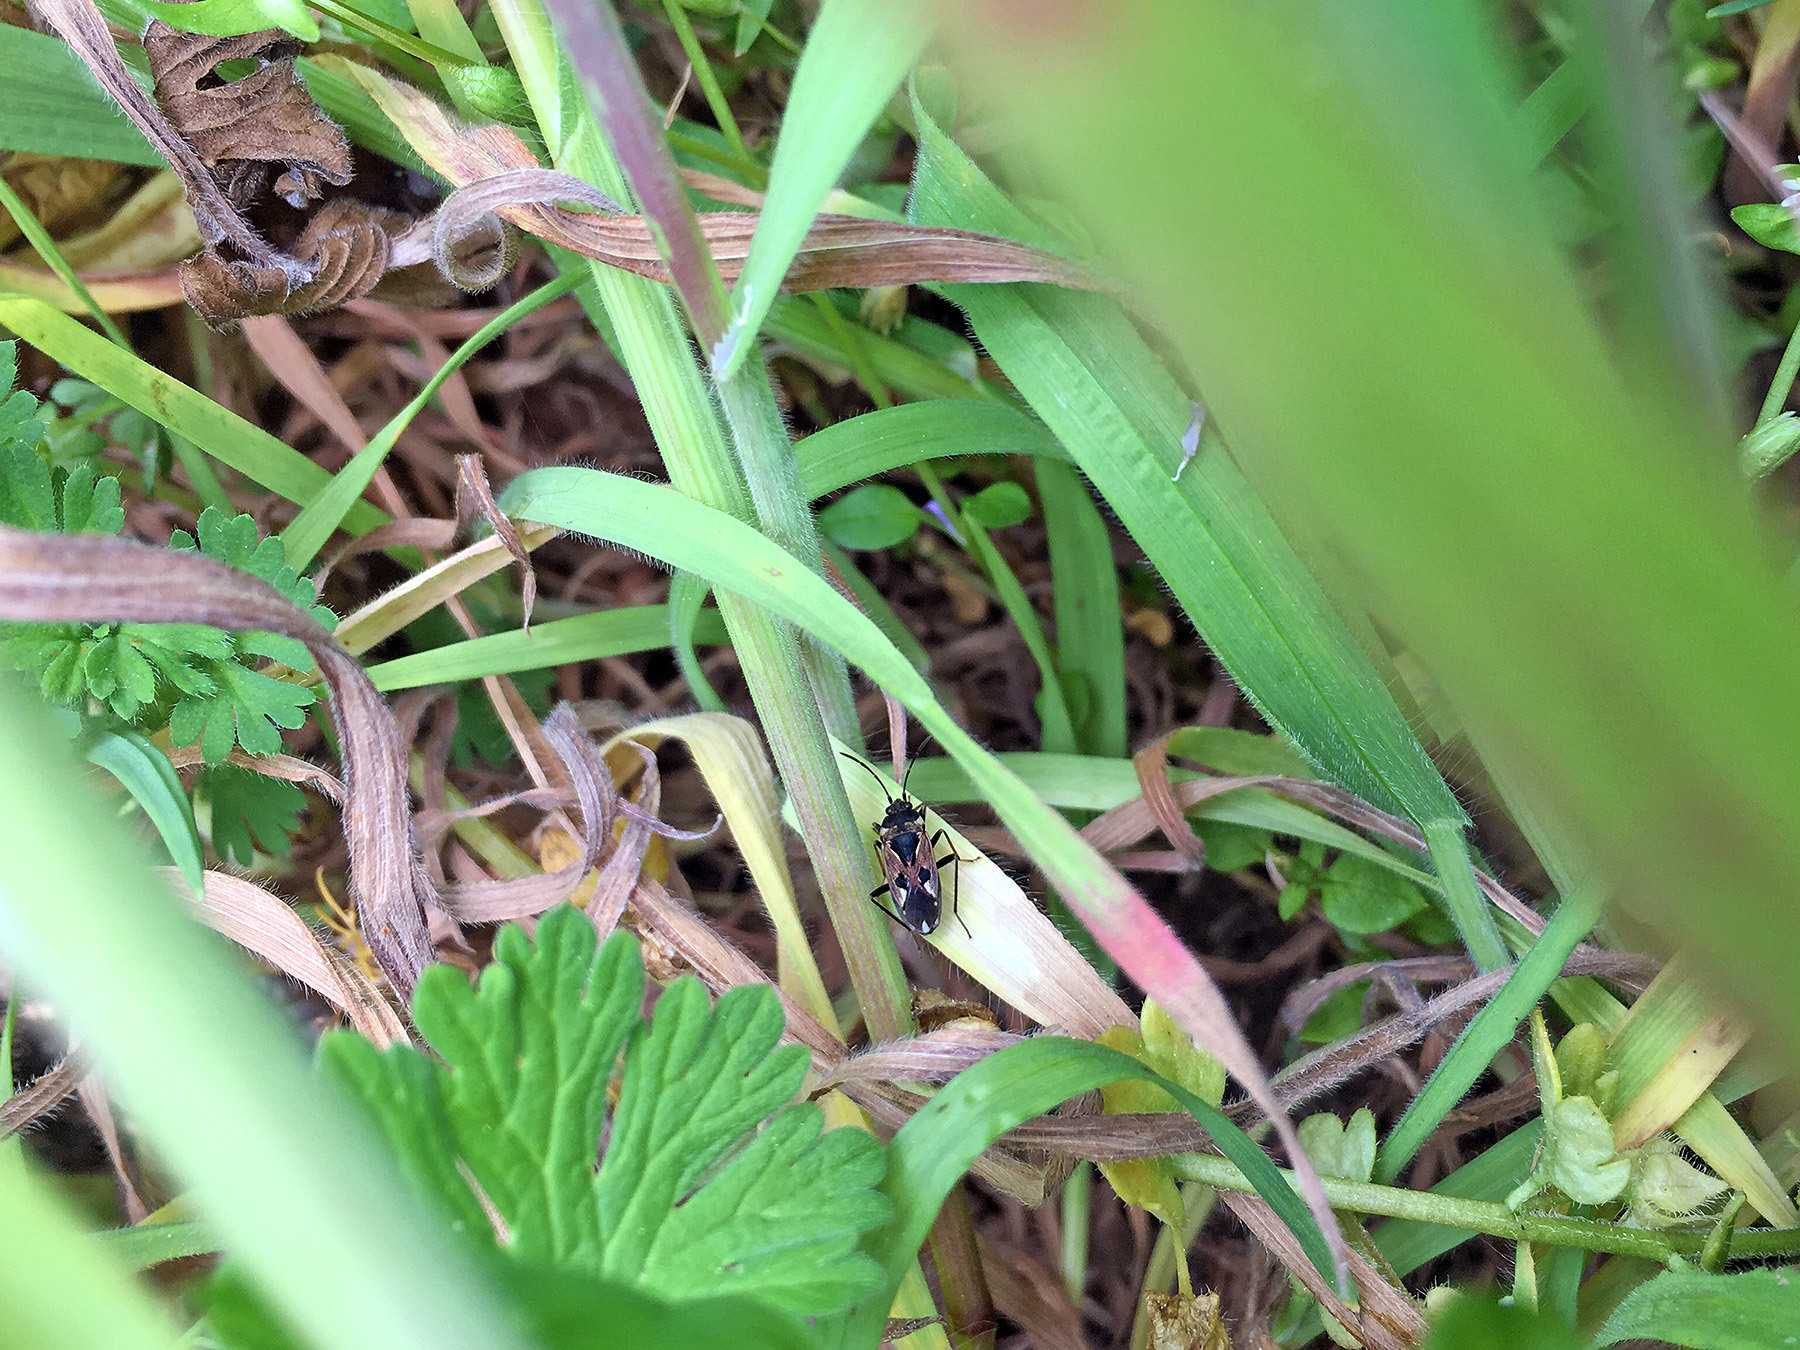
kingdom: Animalia
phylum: Arthropoda
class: Insecta
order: Hemiptera
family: Rhyparochromidae
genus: Rhyparochromus
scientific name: Rhyparochromus vulgaris
